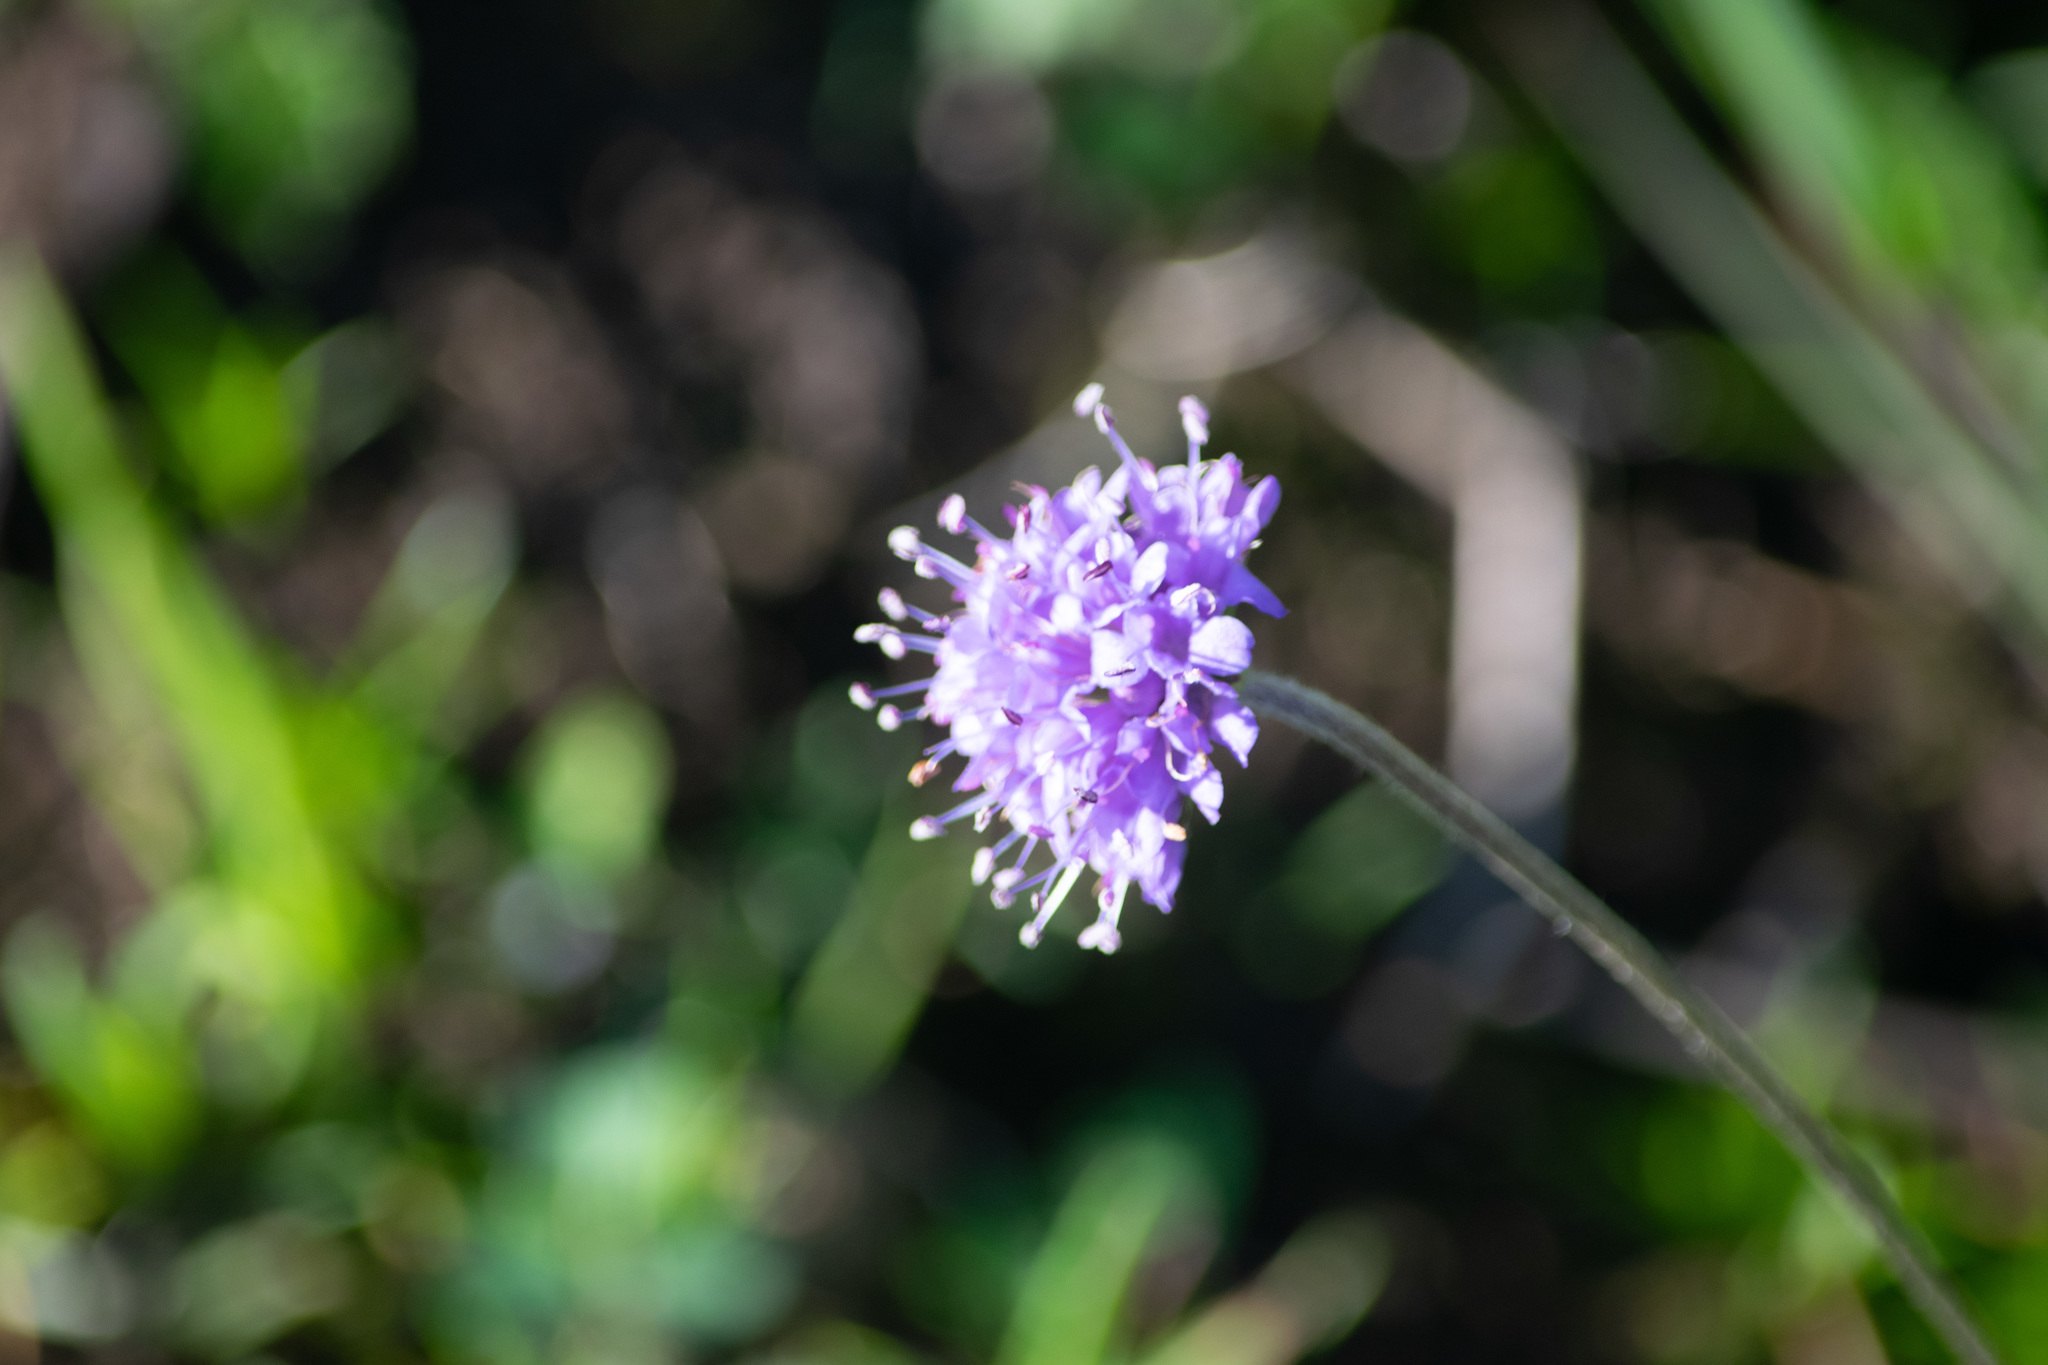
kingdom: Plantae
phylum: Tracheophyta
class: Magnoliopsida
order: Dipsacales
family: Caprifoliaceae
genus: Succisa
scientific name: Succisa pratensis
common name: Devil's-bit
